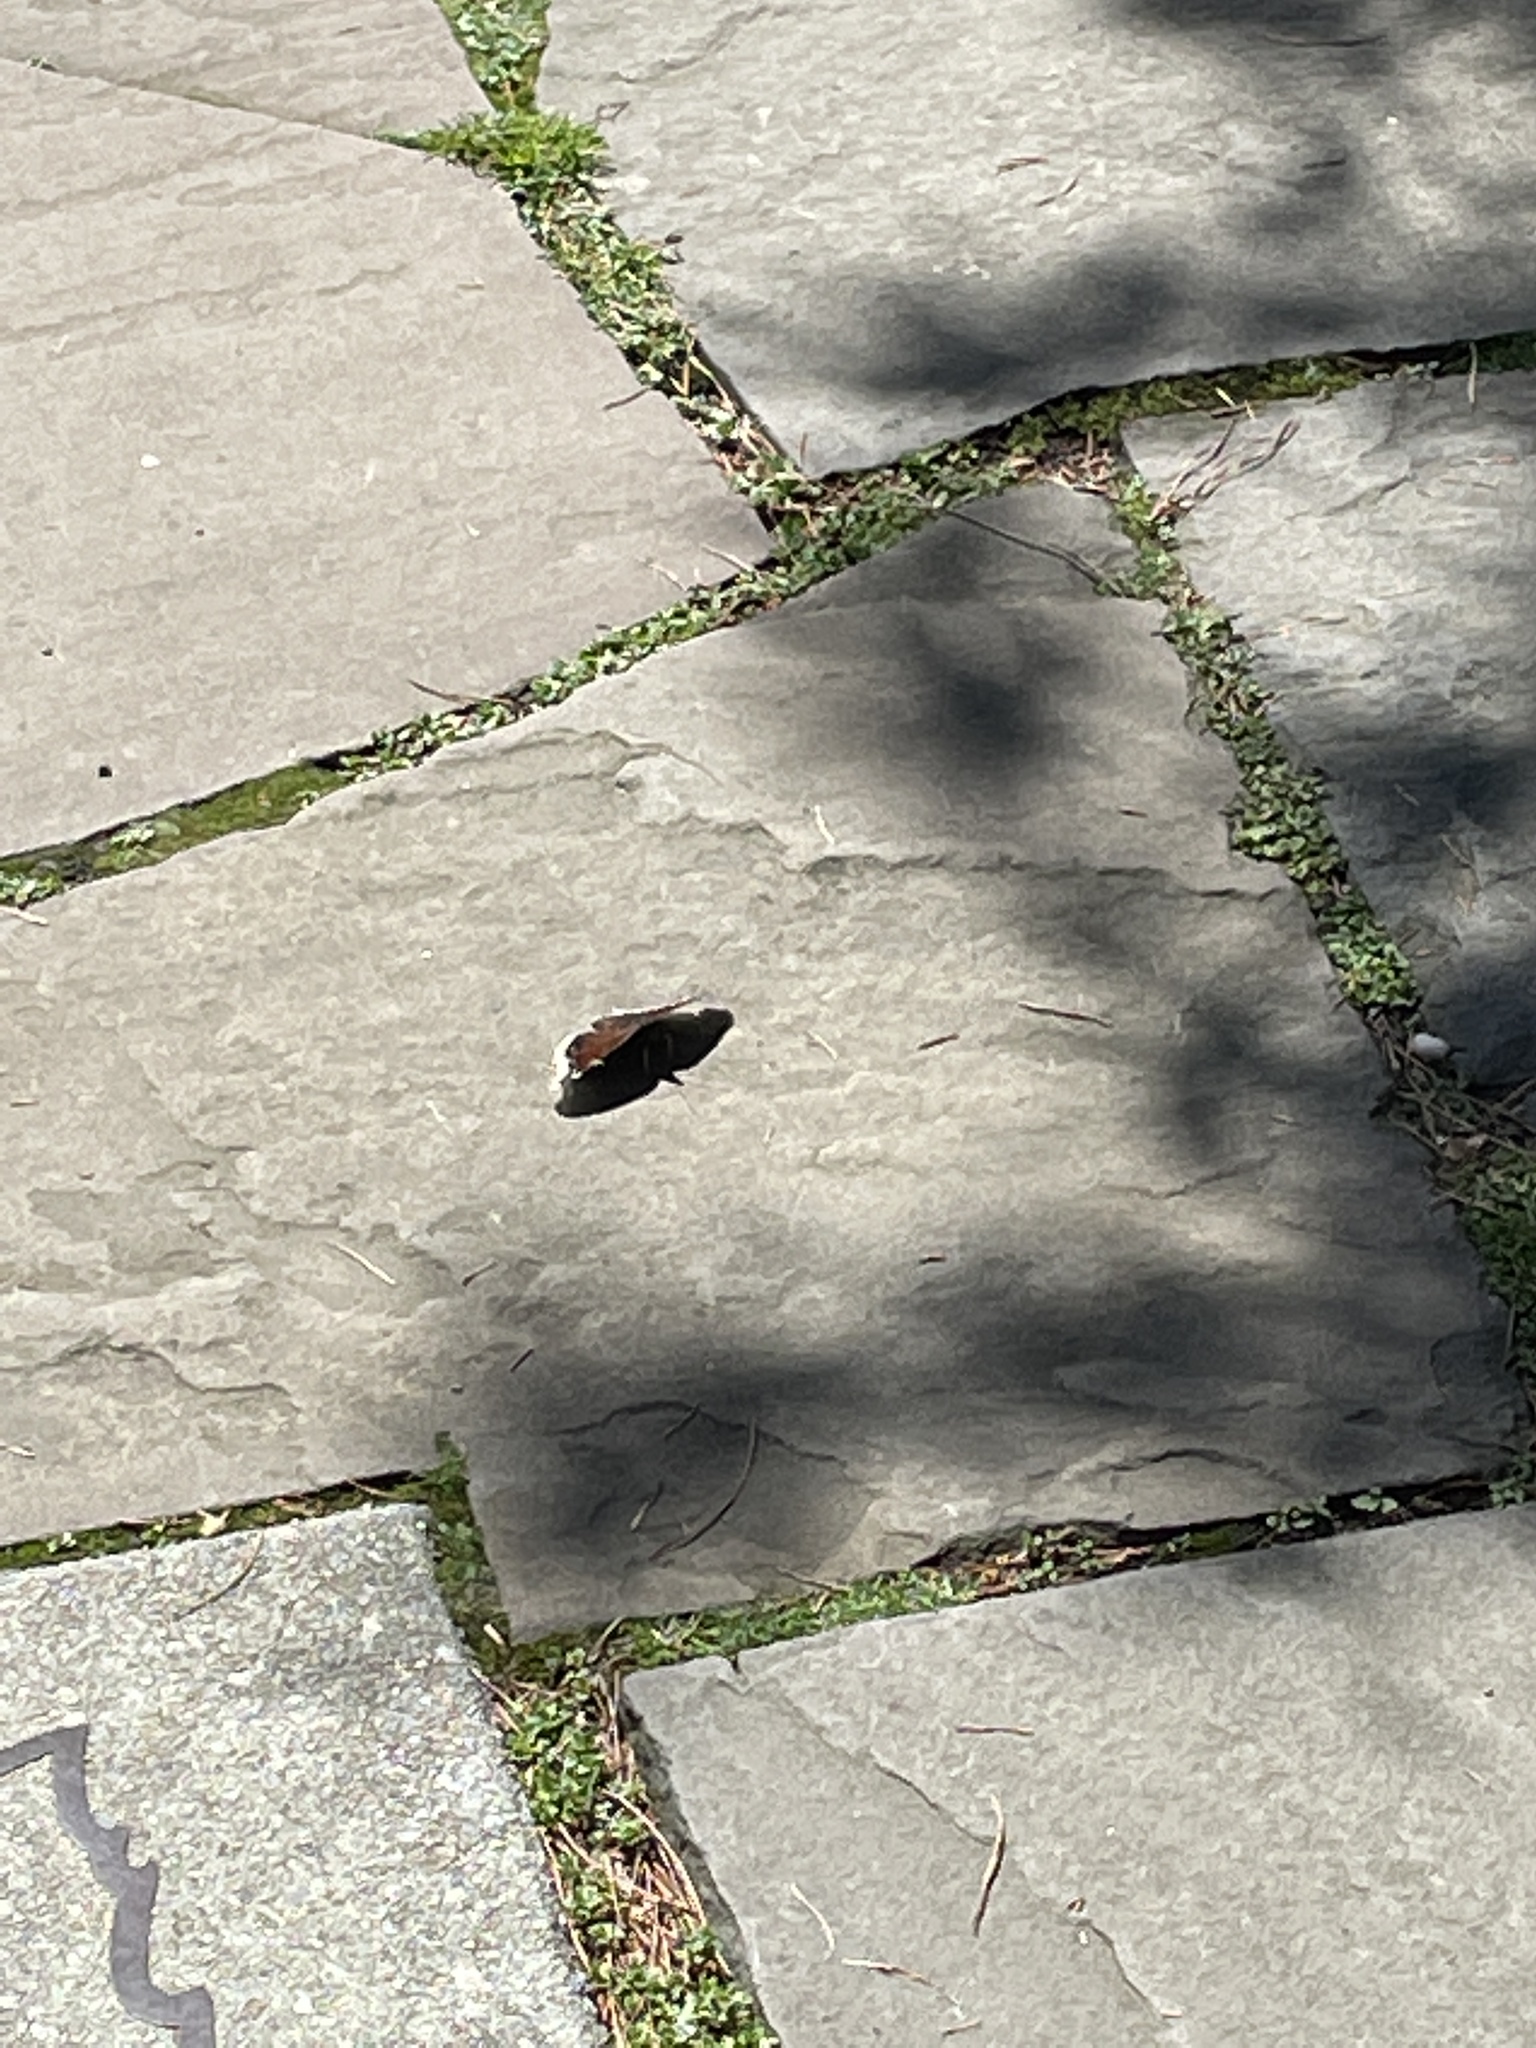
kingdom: Animalia
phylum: Arthropoda
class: Insecta
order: Lepidoptera
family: Nymphalidae
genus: Nymphalis
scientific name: Nymphalis antiopa
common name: Camberwell beauty
